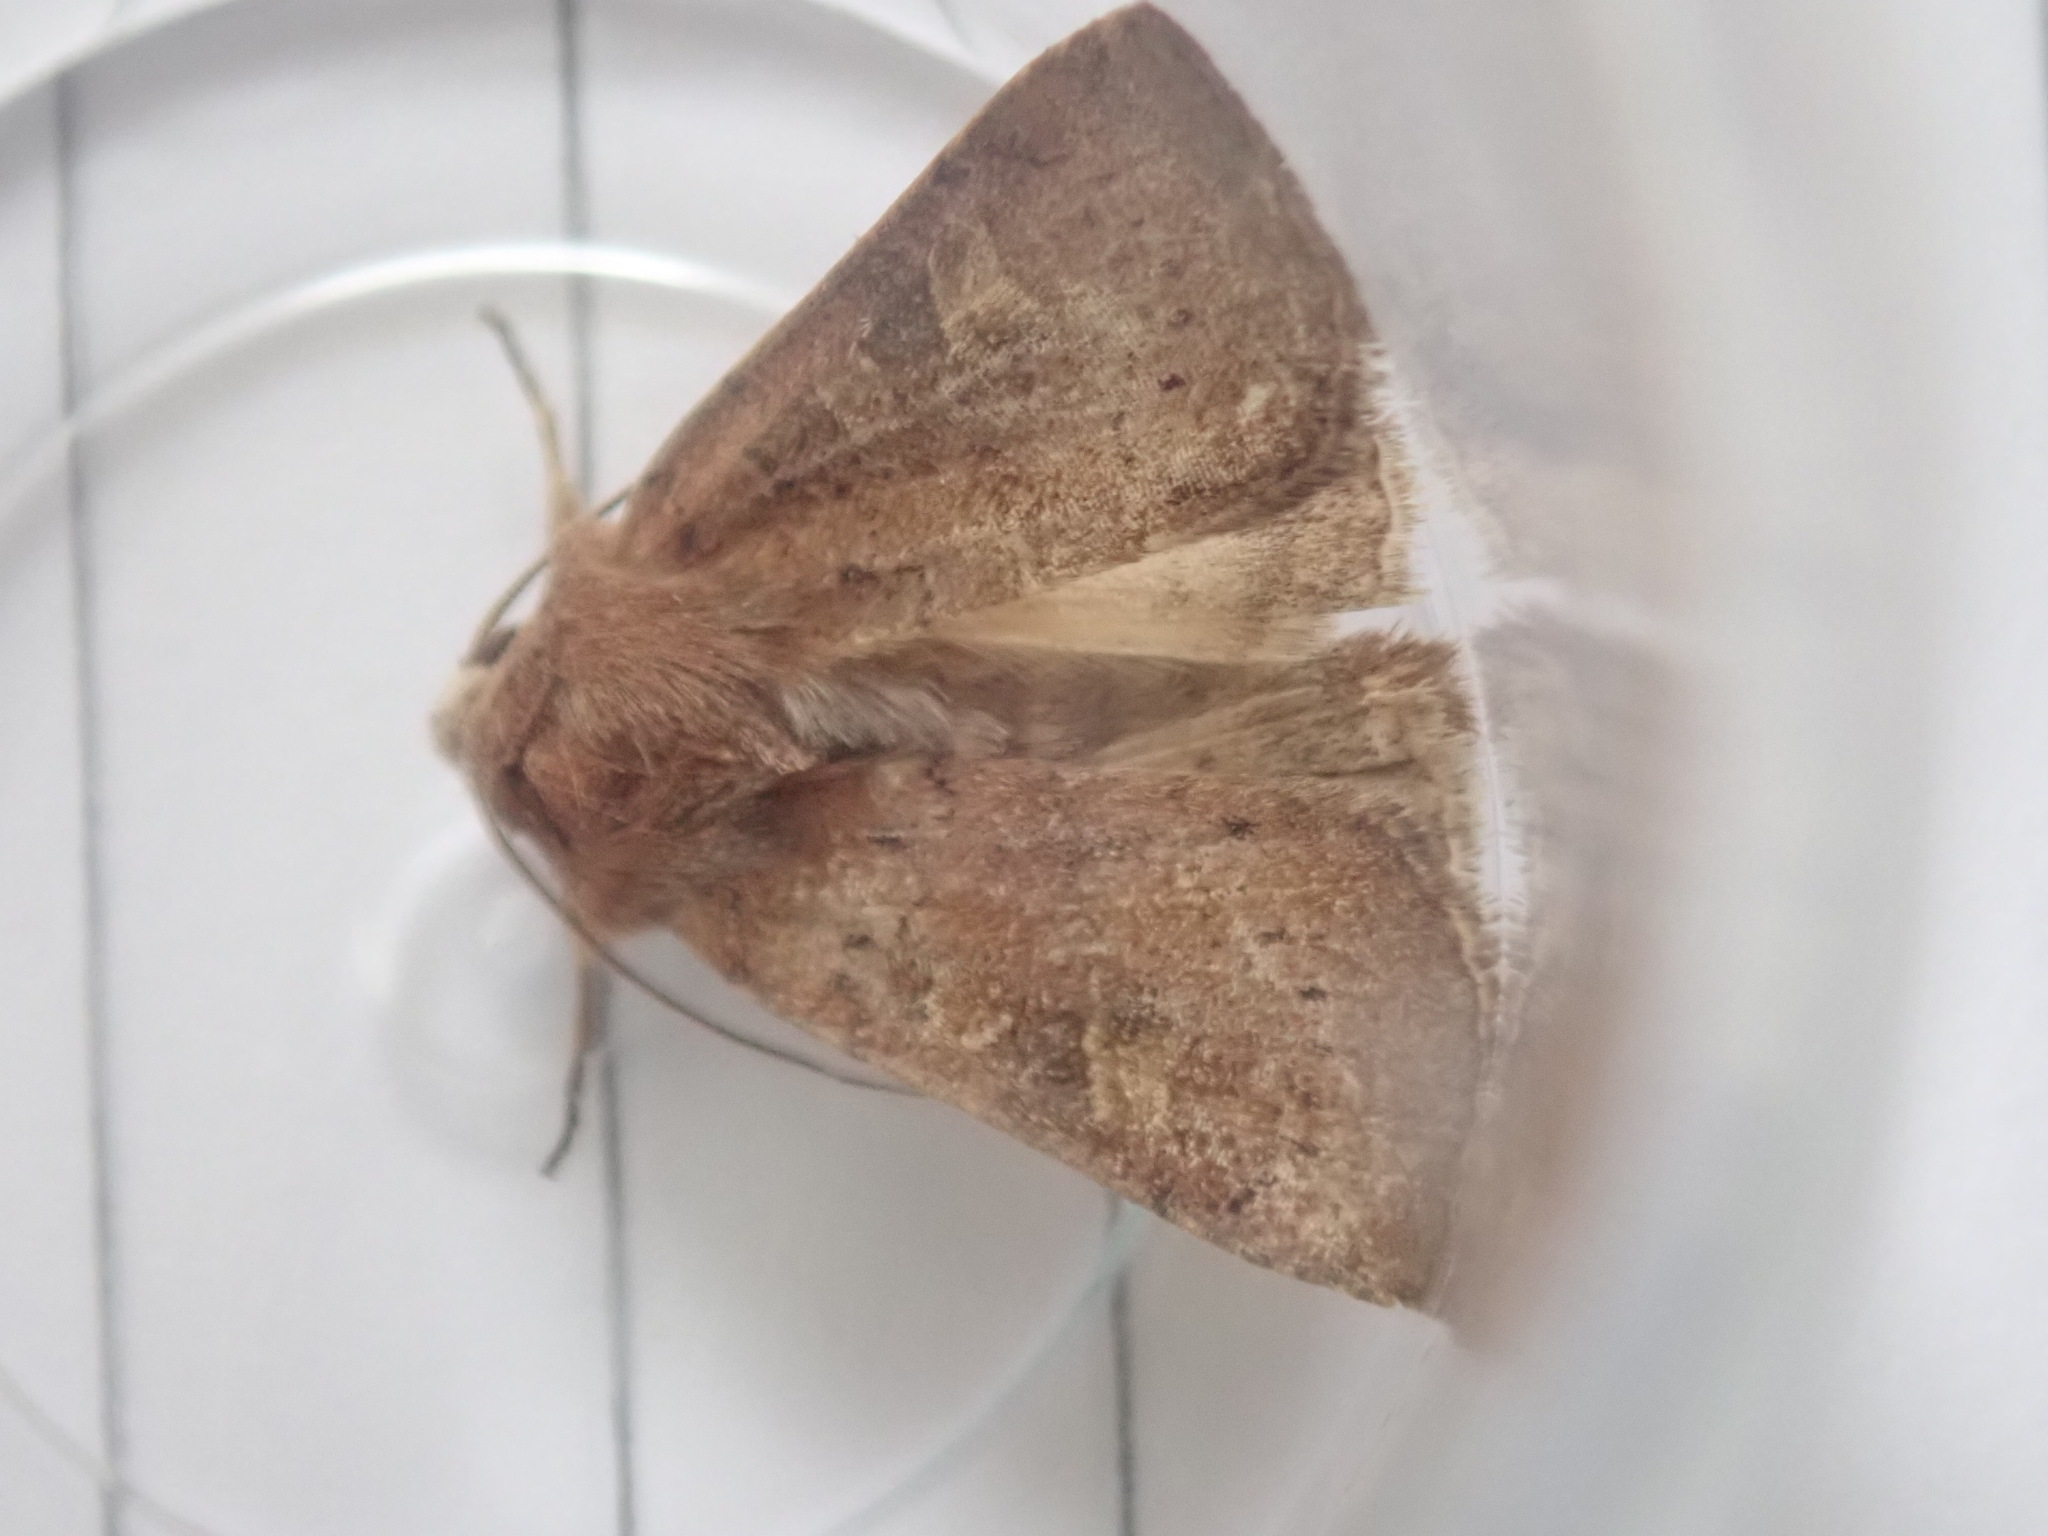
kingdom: Animalia
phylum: Arthropoda
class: Insecta
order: Lepidoptera
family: Noctuidae
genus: Xestia
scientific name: Xestia xanthographa
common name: Square-spot rustic
